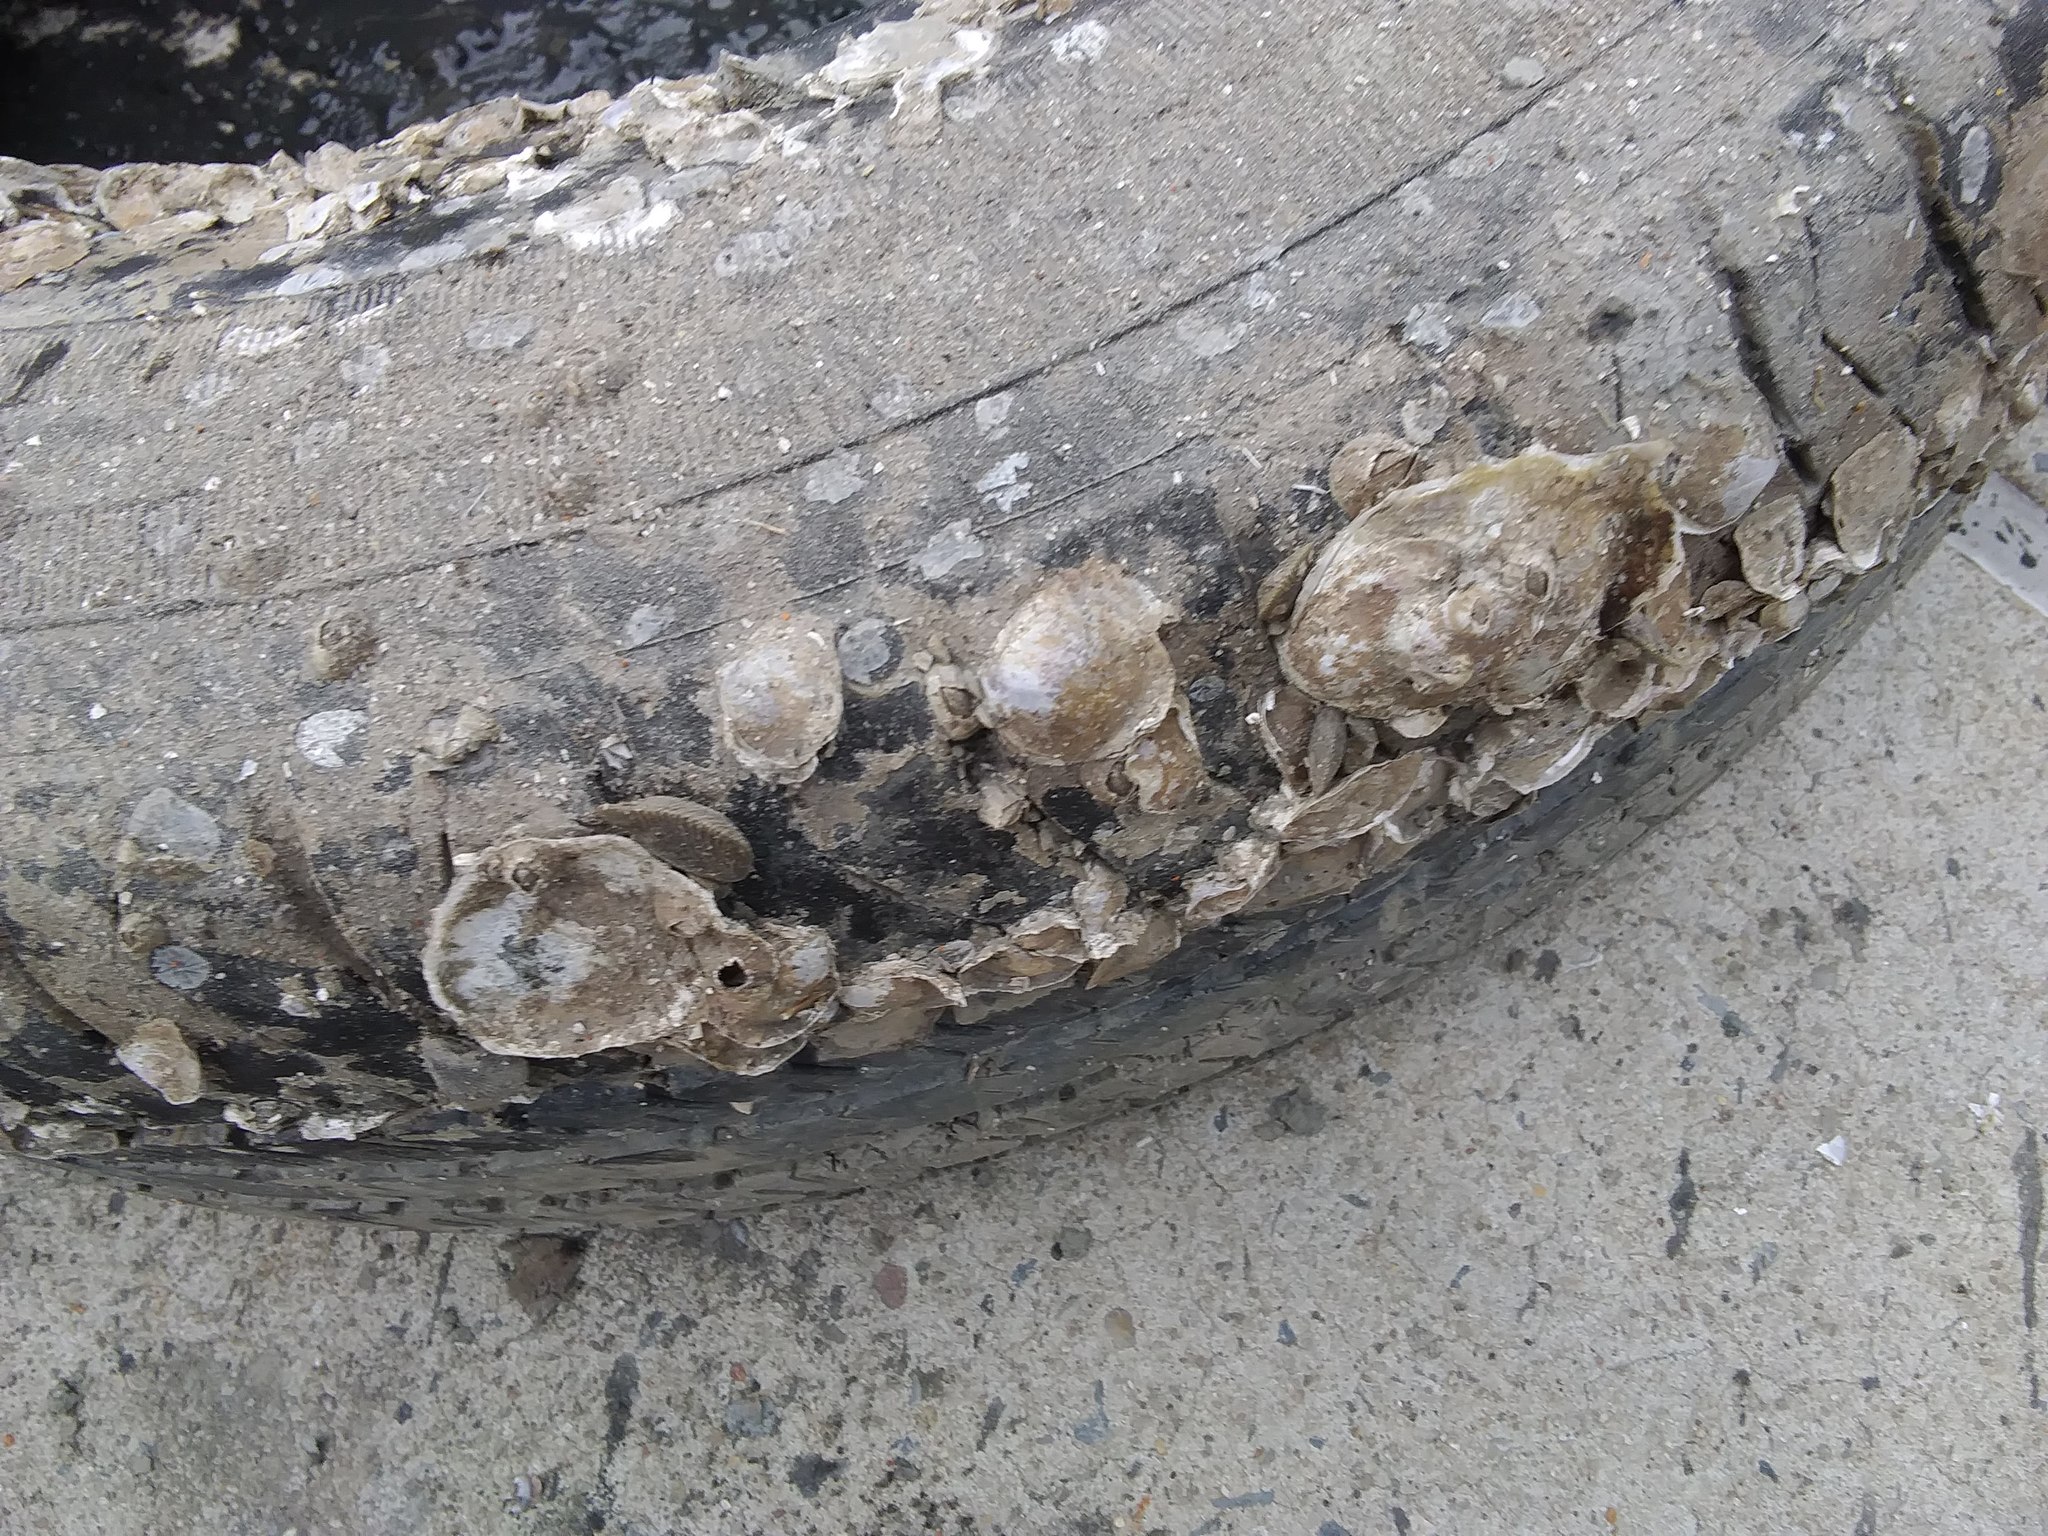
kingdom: Animalia
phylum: Mollusca
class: Bivalvia
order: Ostreida
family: Ostreidae
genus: Crassostrea
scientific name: Crassostrea virginica
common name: American oyster
